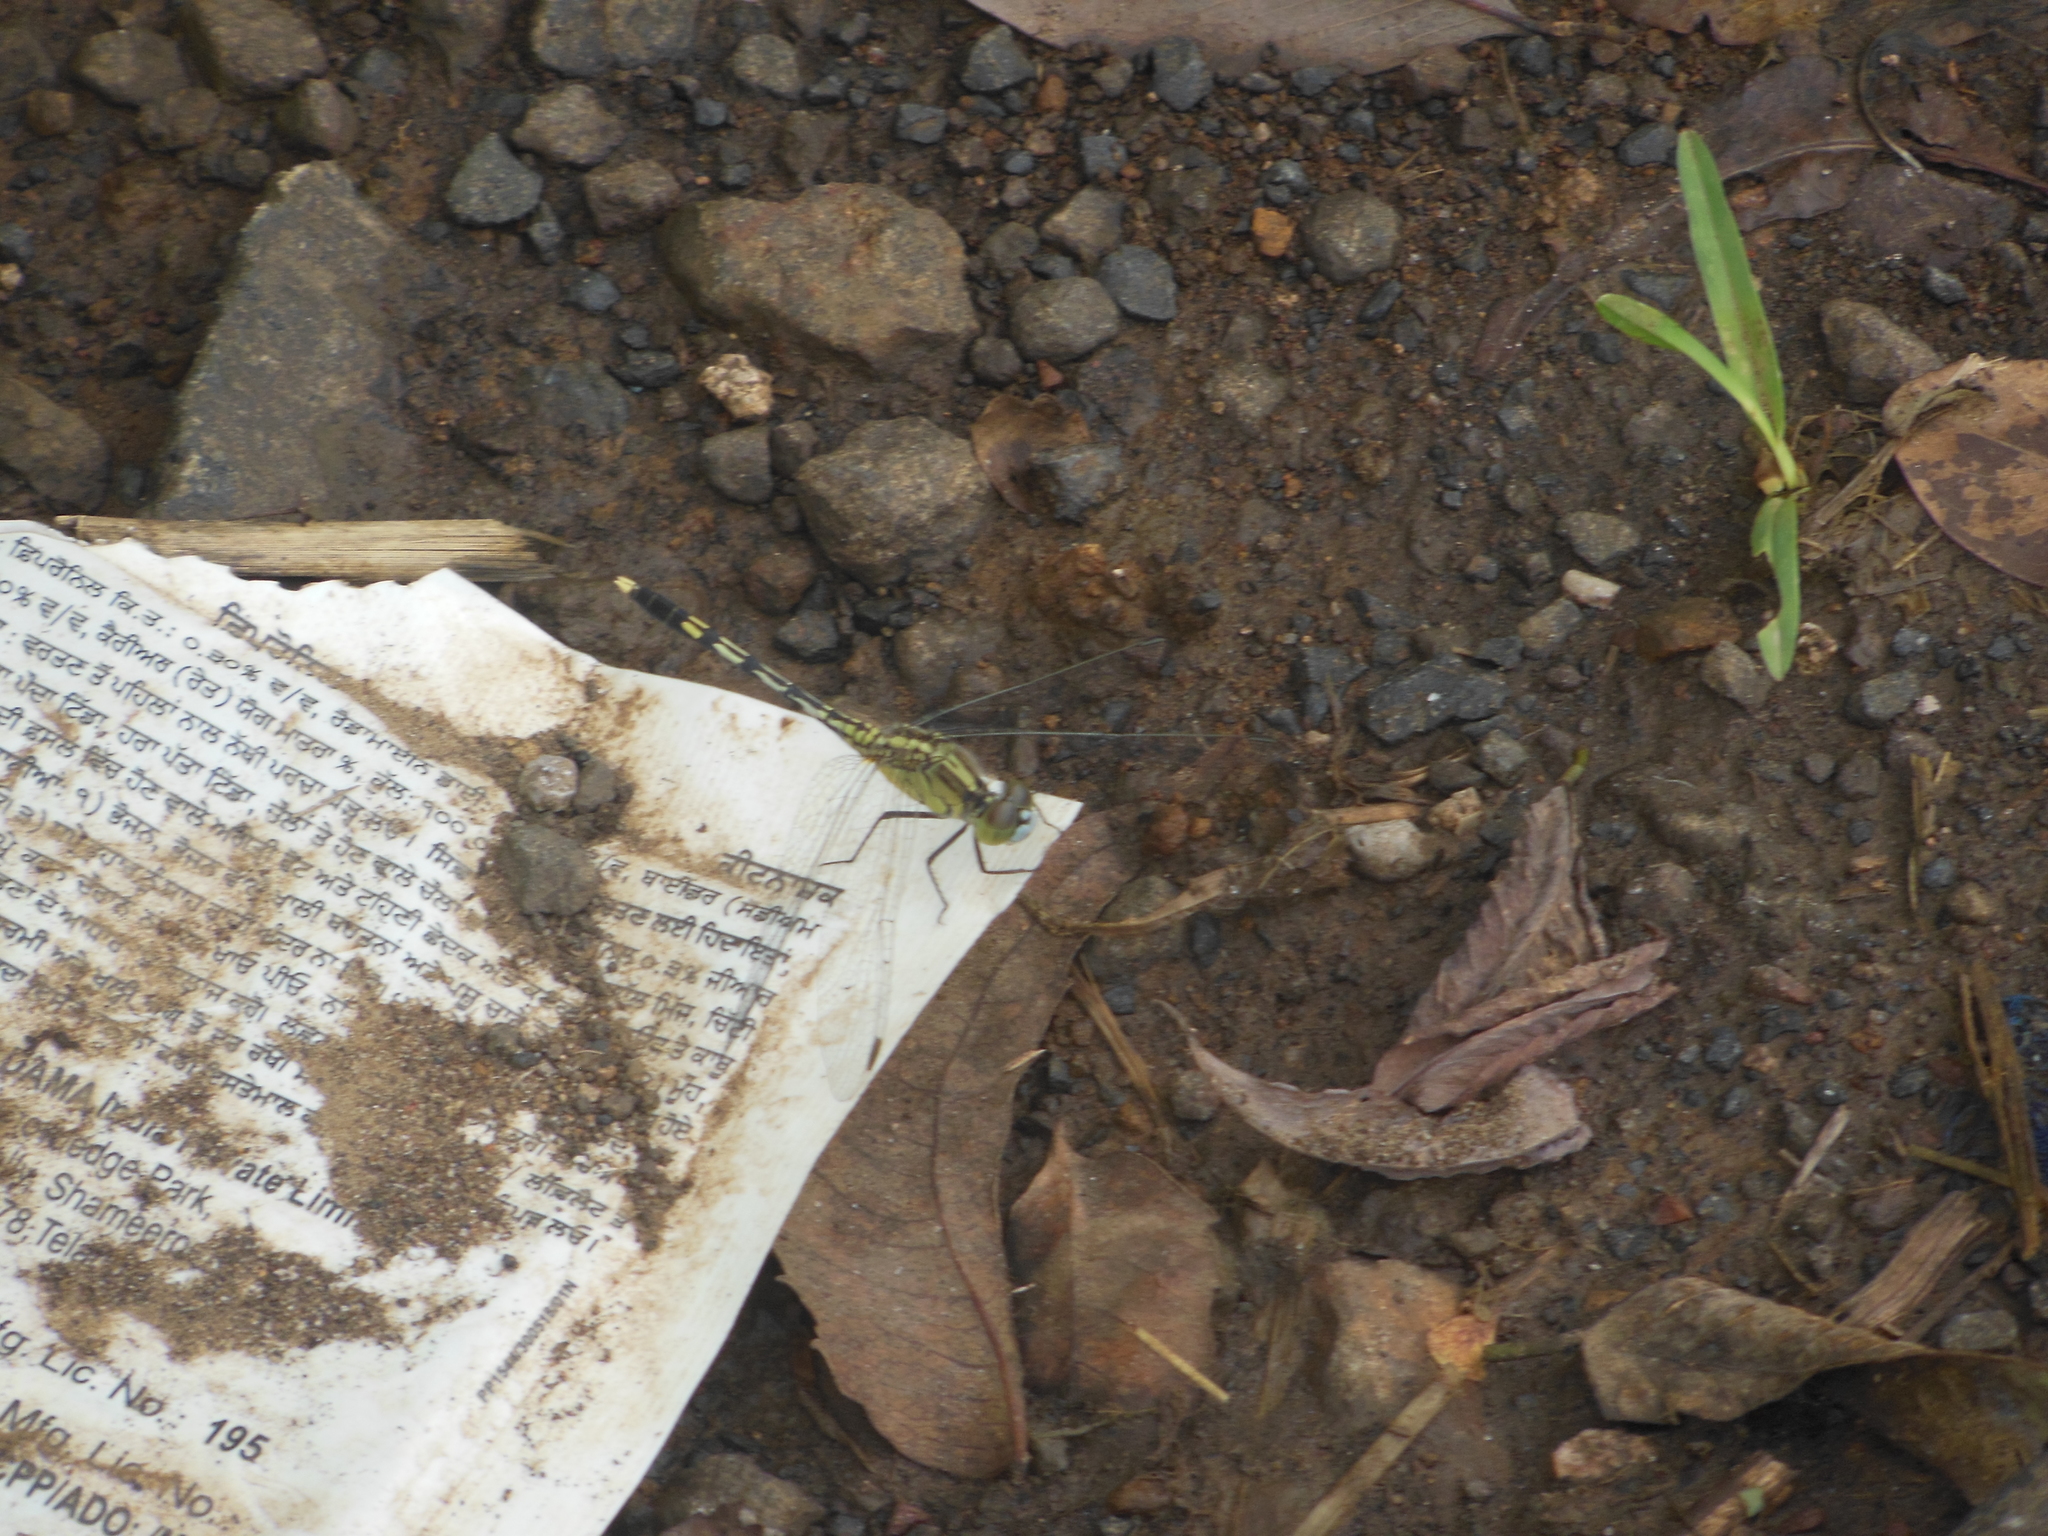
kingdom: Animalia
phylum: Arthropoda
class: Insecta
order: Odonata
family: Libellulidae
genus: Diplacodes
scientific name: Diplacodes trivialis
